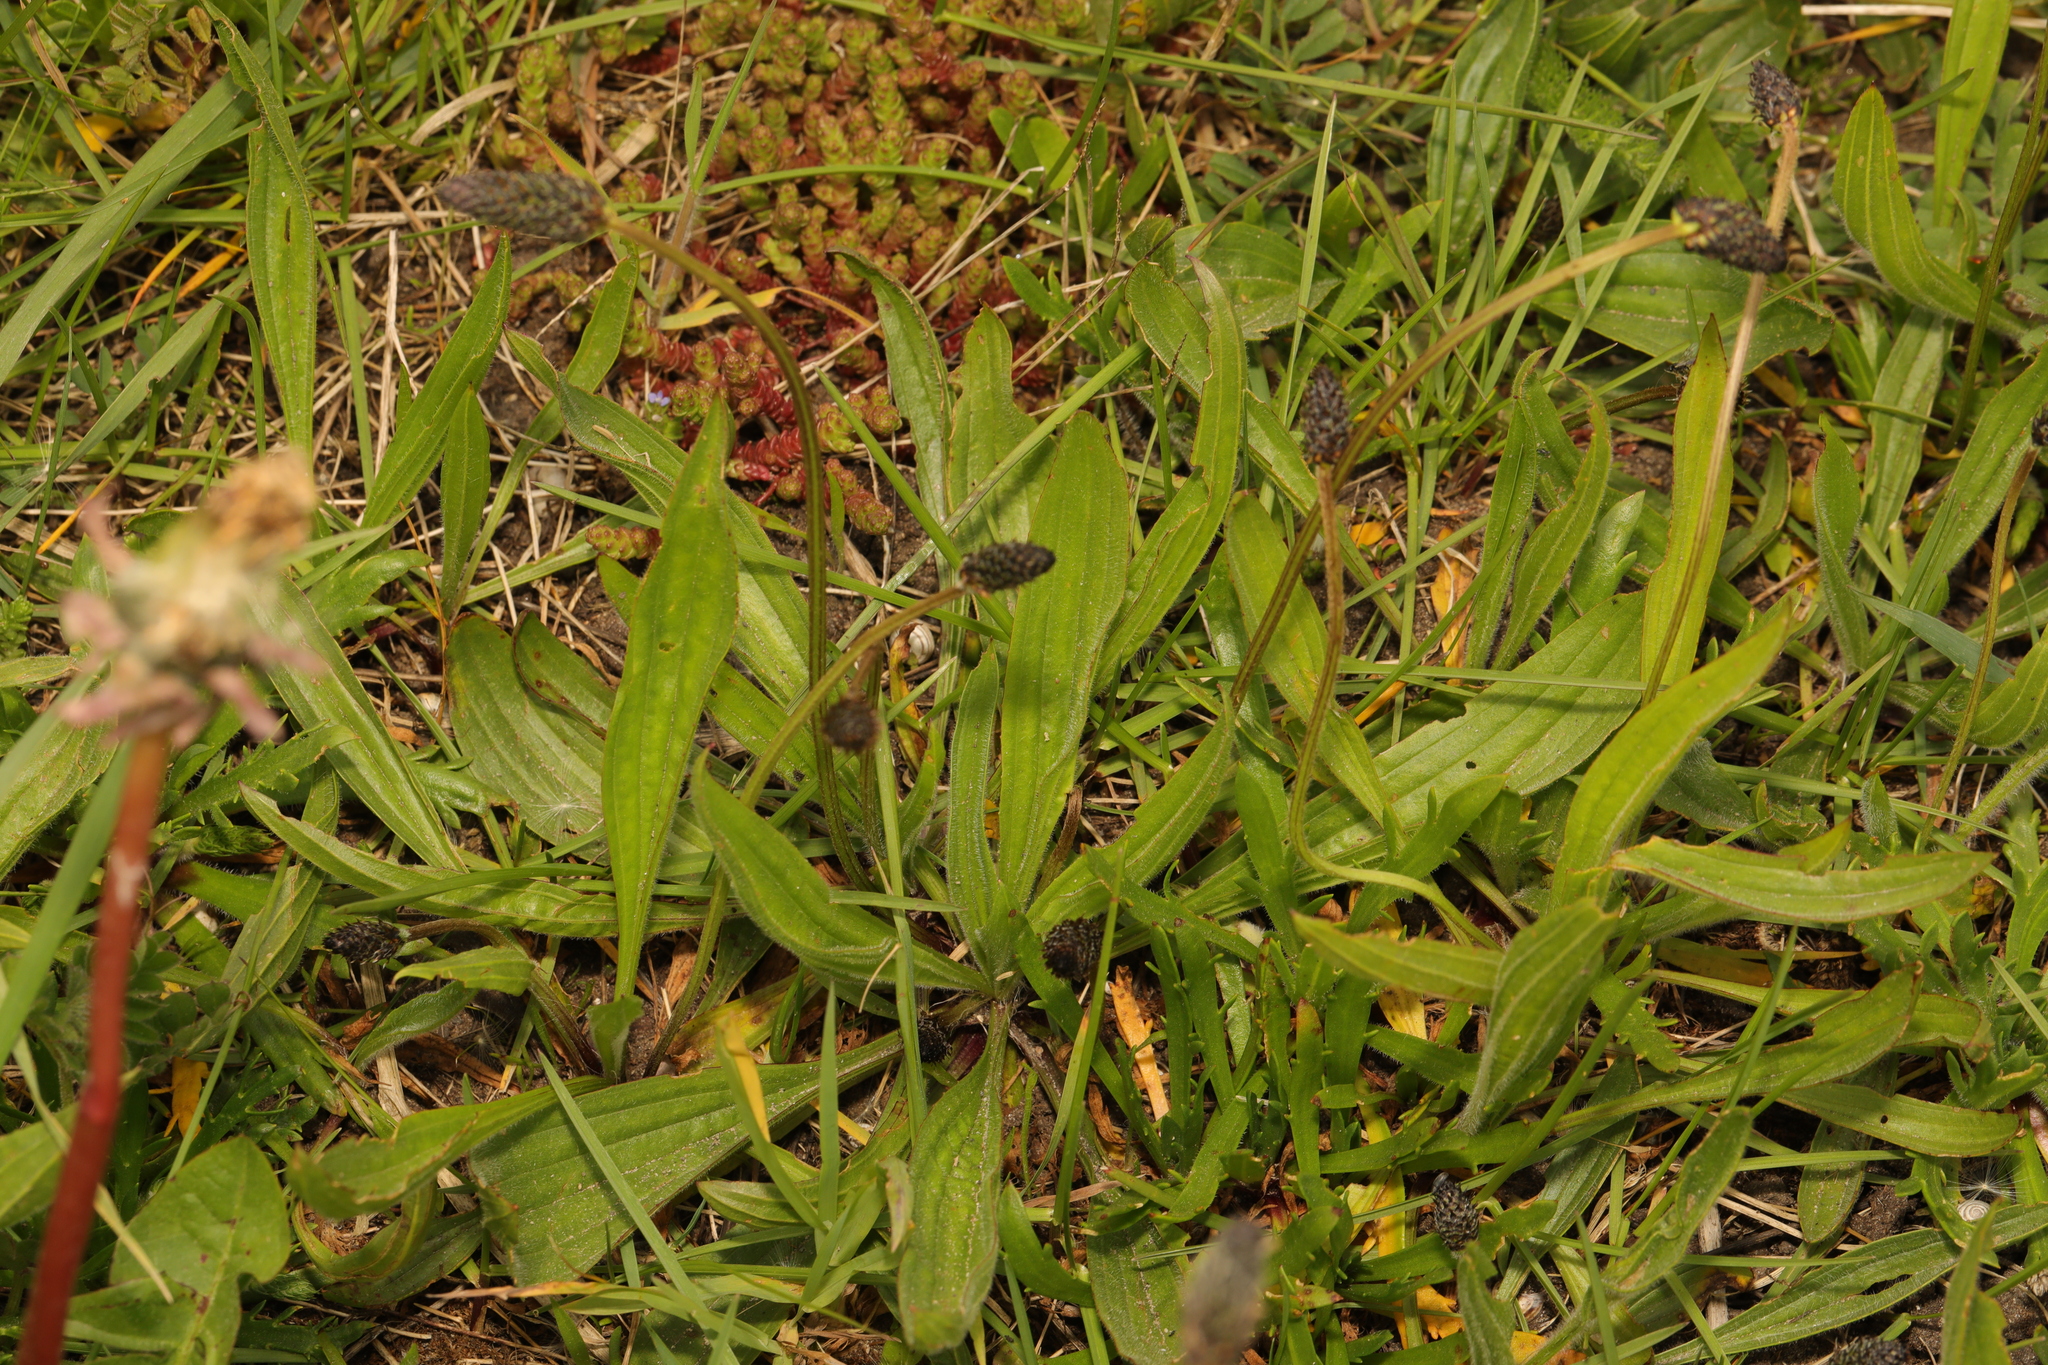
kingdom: Plantae
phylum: Tracheophyta
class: Magnoliopsida
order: Lamiales
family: Plantaginaceae
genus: Plantago
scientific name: Plantago lanceolata
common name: Ribwort plantain
